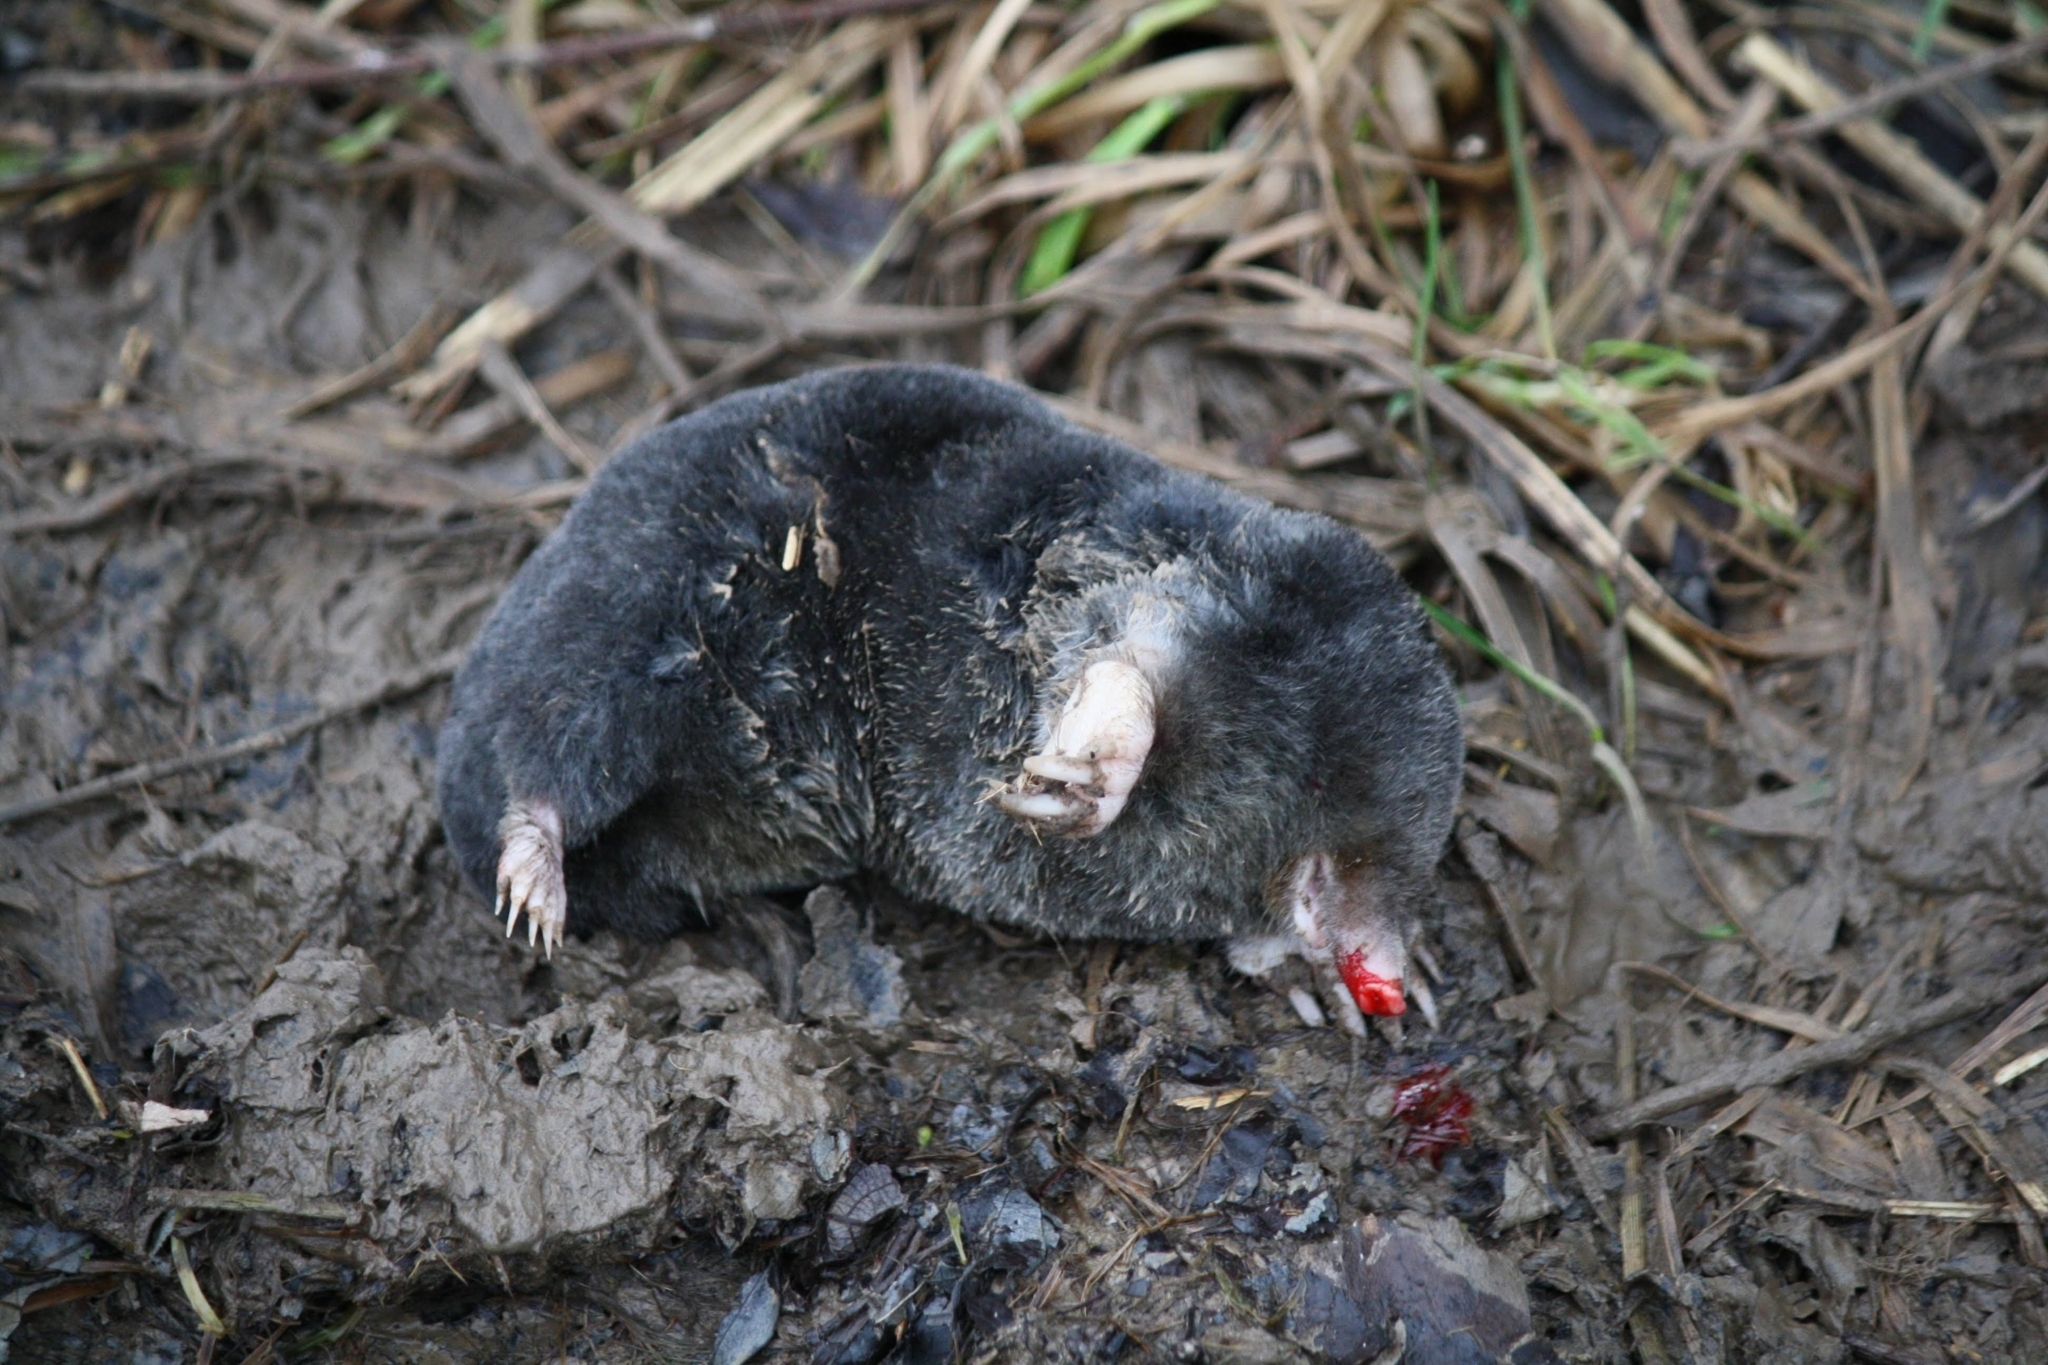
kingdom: Animalia
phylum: Chordata
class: Mammalia
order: Soricomorpha
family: Talpidae
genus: Talpa
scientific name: Talpa europaea
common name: European mole
